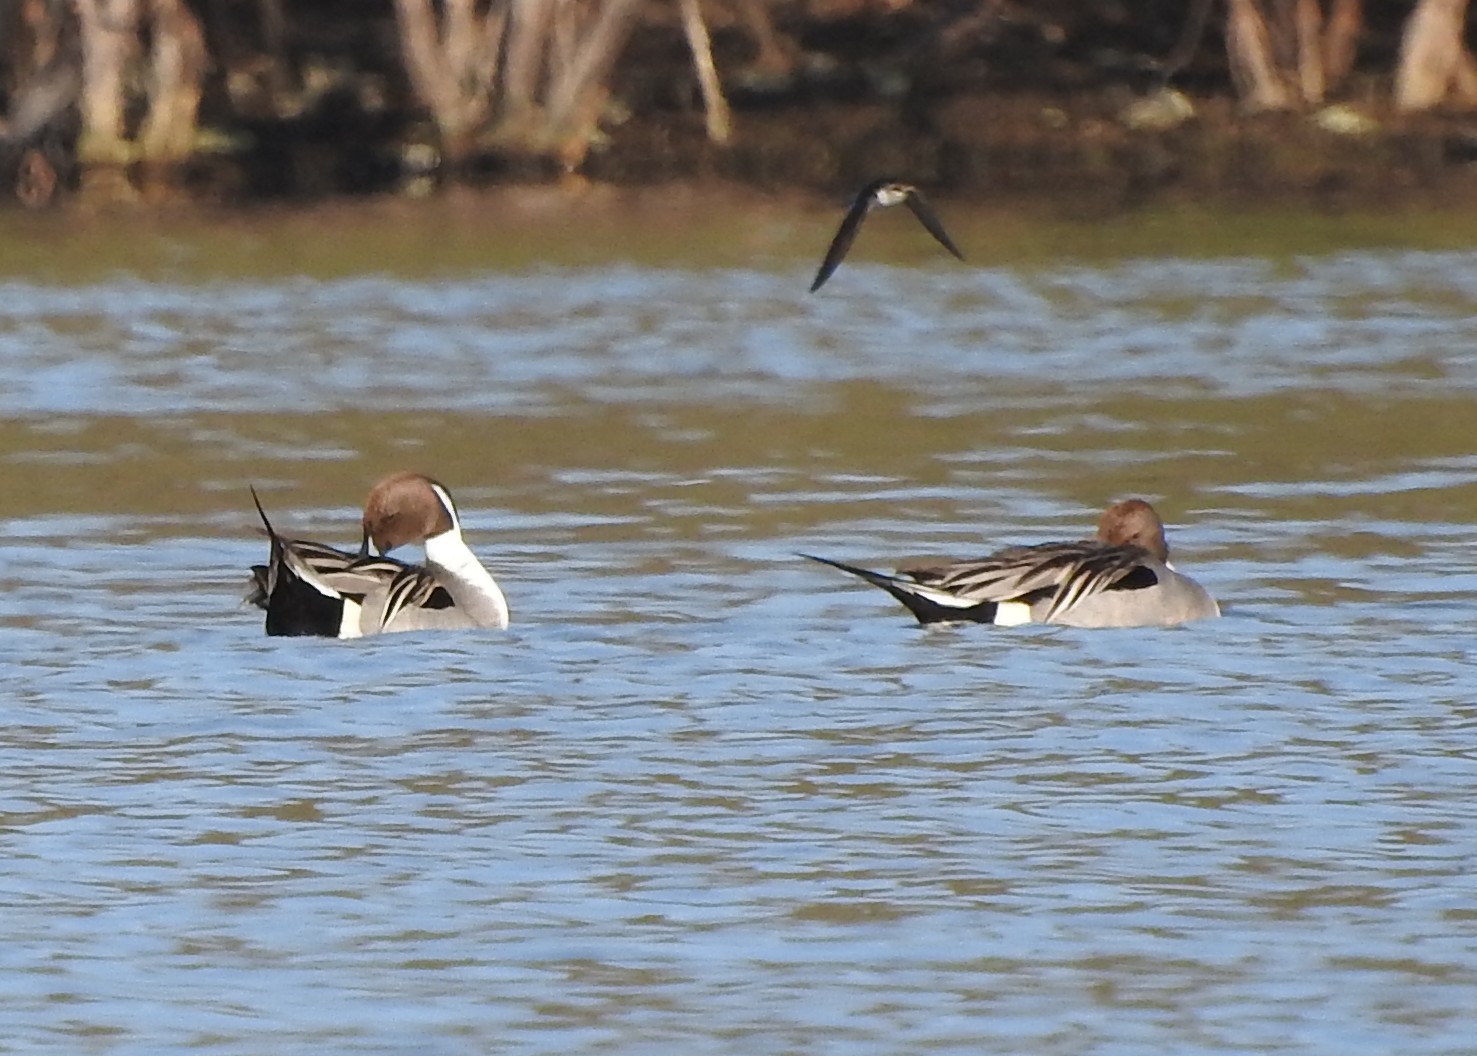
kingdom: Animalia
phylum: Chordata
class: Aves
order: Anseriformes
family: Anatidae
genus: Anas
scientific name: Anas acuta
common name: Northern pintail
